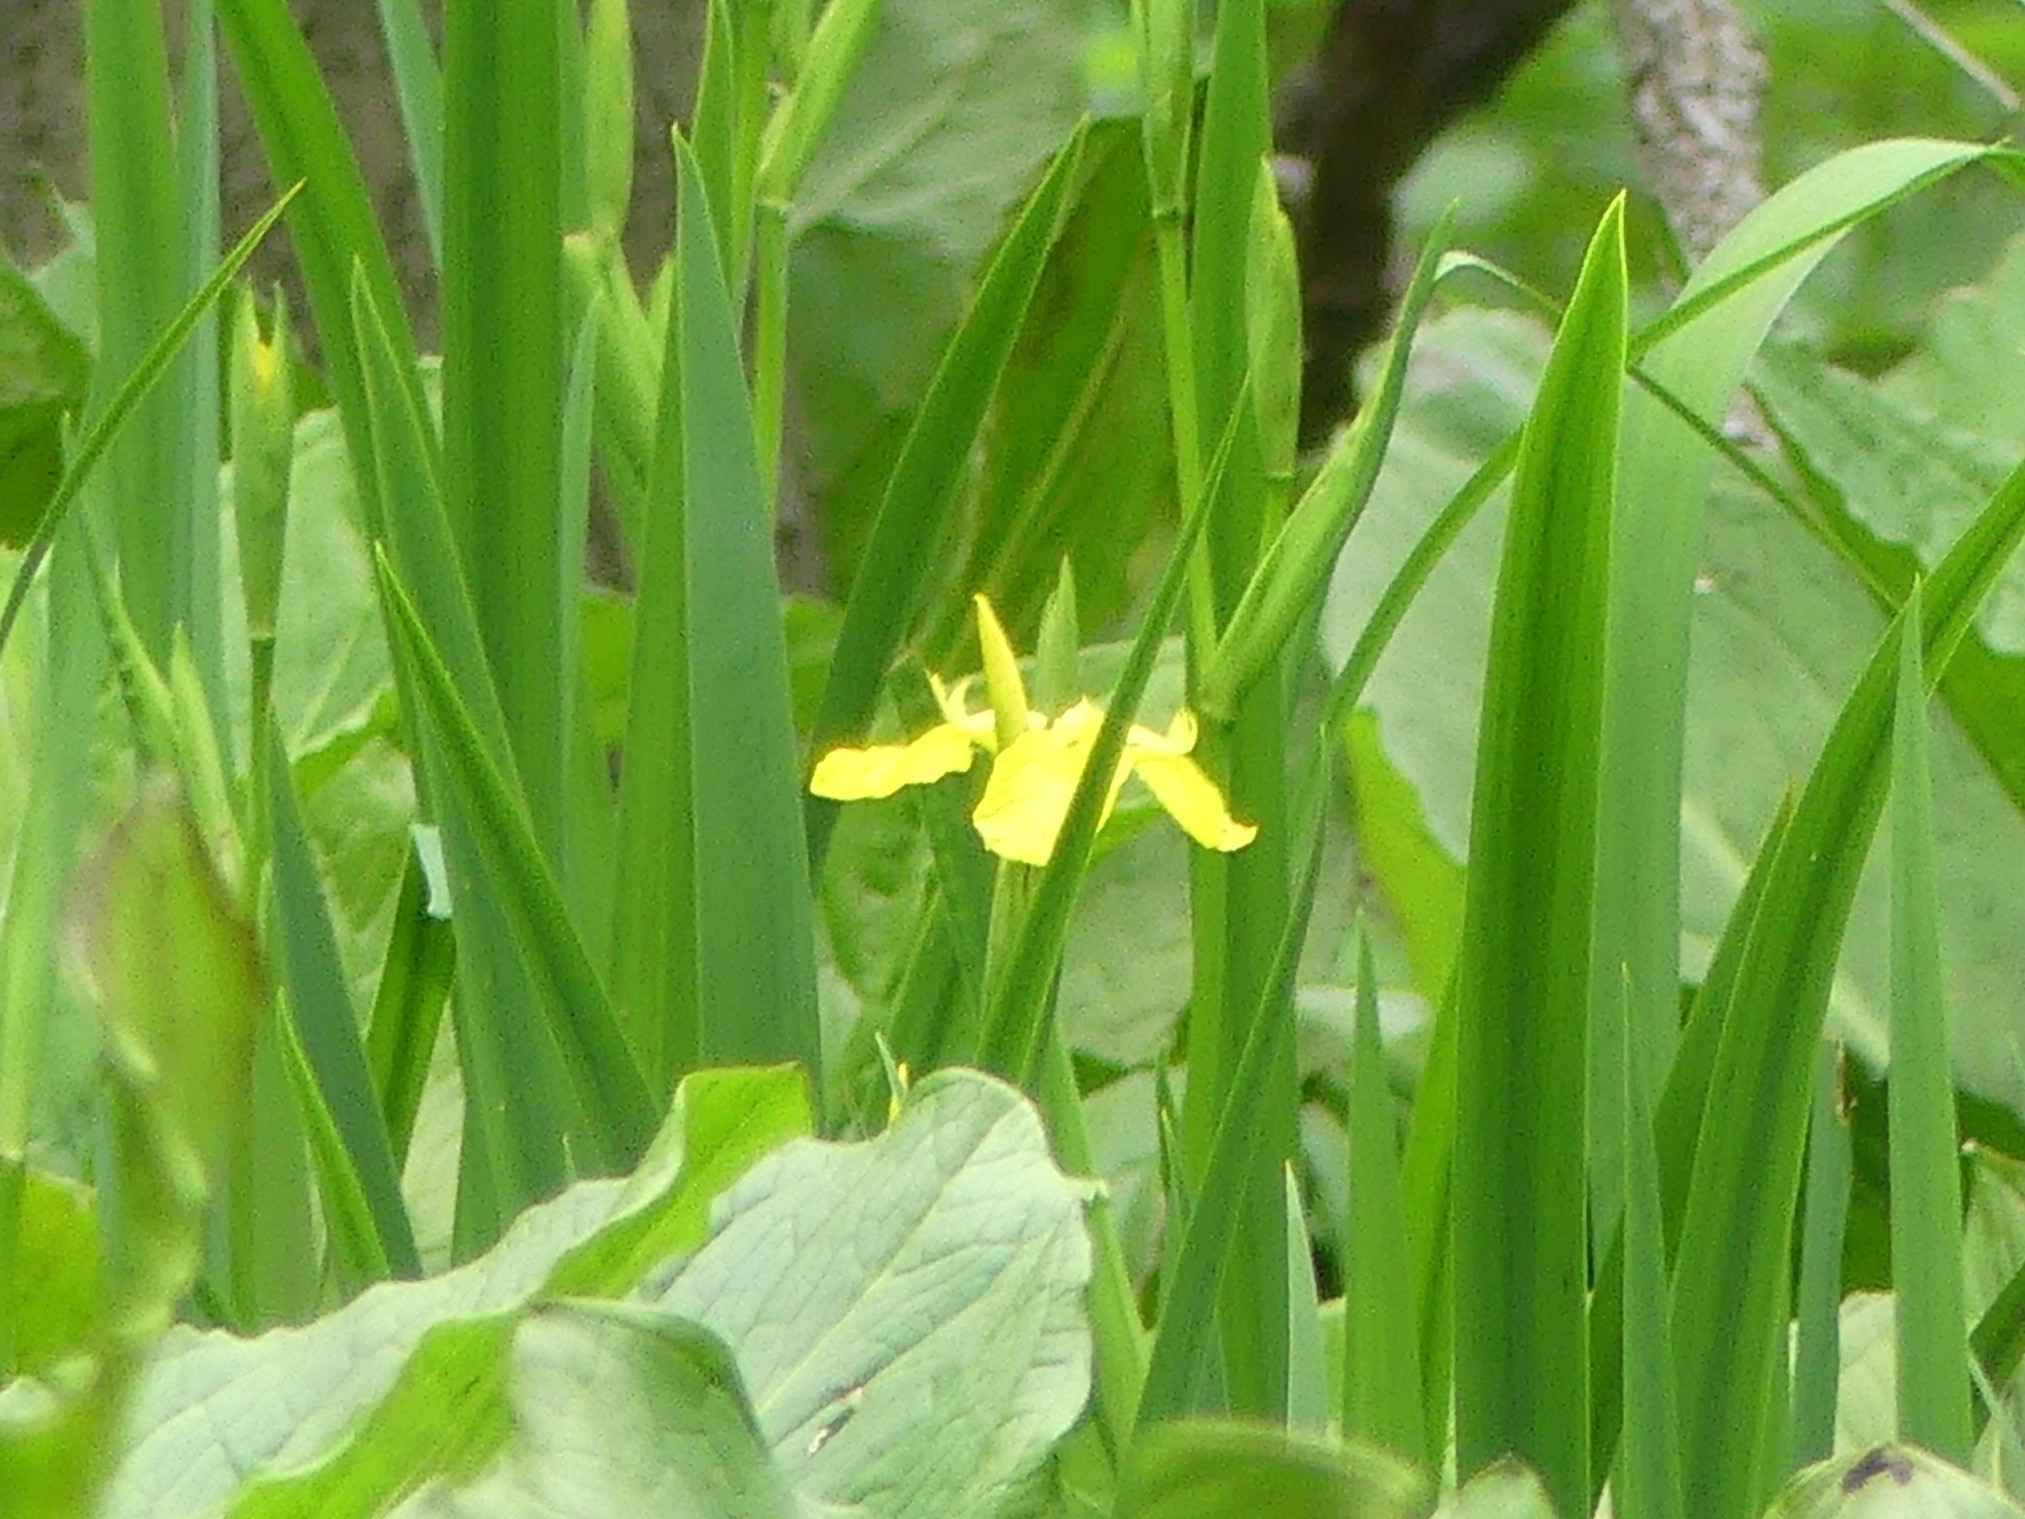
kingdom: Plantae
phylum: Tracheophyta
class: Liliopsida
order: Asparagales
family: Iridaceae
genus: Iris
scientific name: Iris pseudacorus
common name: Yellow flag
